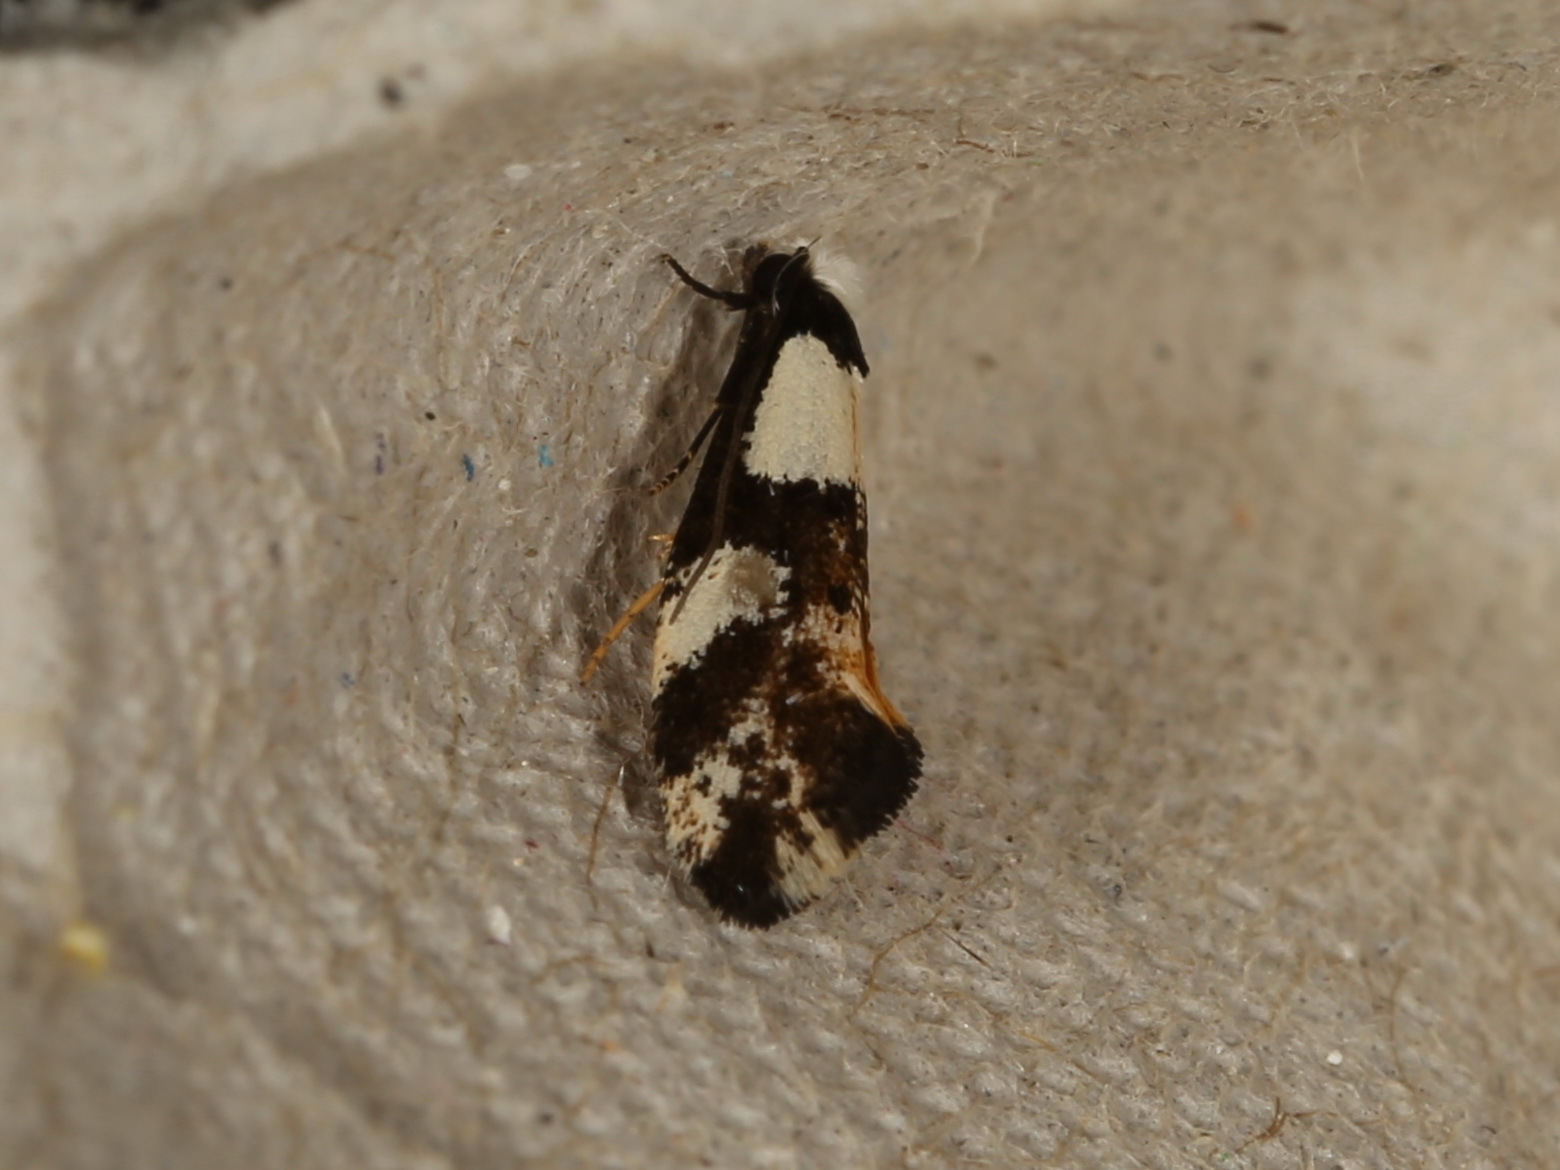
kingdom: Animalia
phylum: Arthropoda
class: Insecta
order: Lepidoptera
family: Tineidae
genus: Monopis
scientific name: Monopis icterogastra
